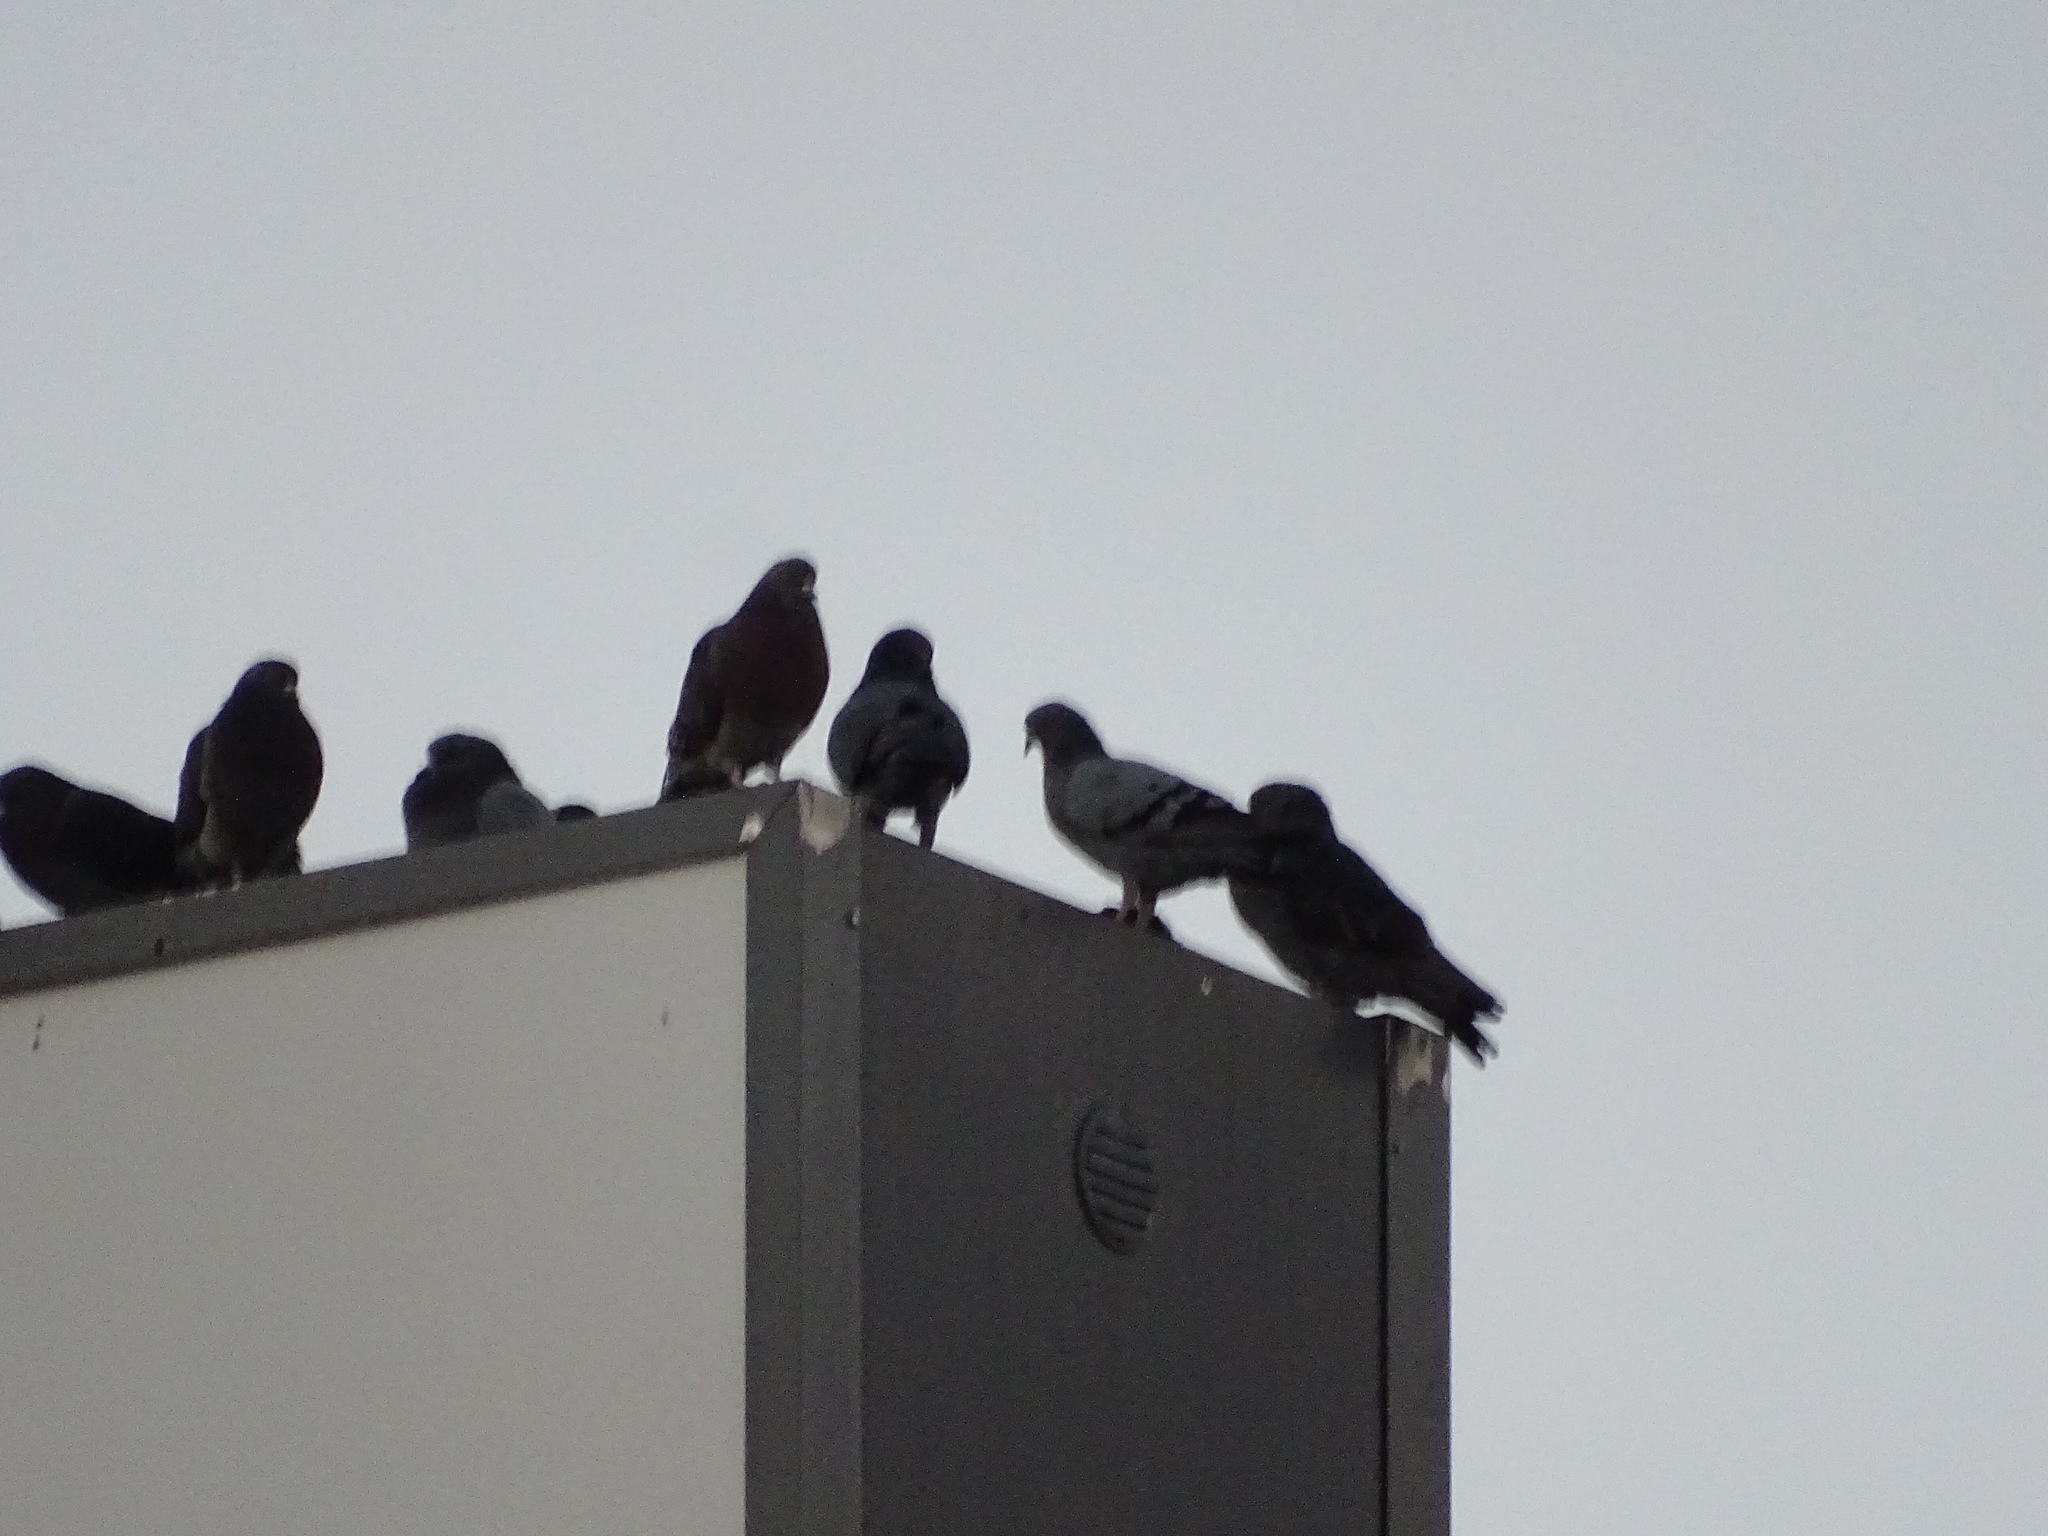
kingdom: Animalia
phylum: Chordata
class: Aves
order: Columbiformes
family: Columbidae
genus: Columba
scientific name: Columba livia
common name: Rock pigeon
